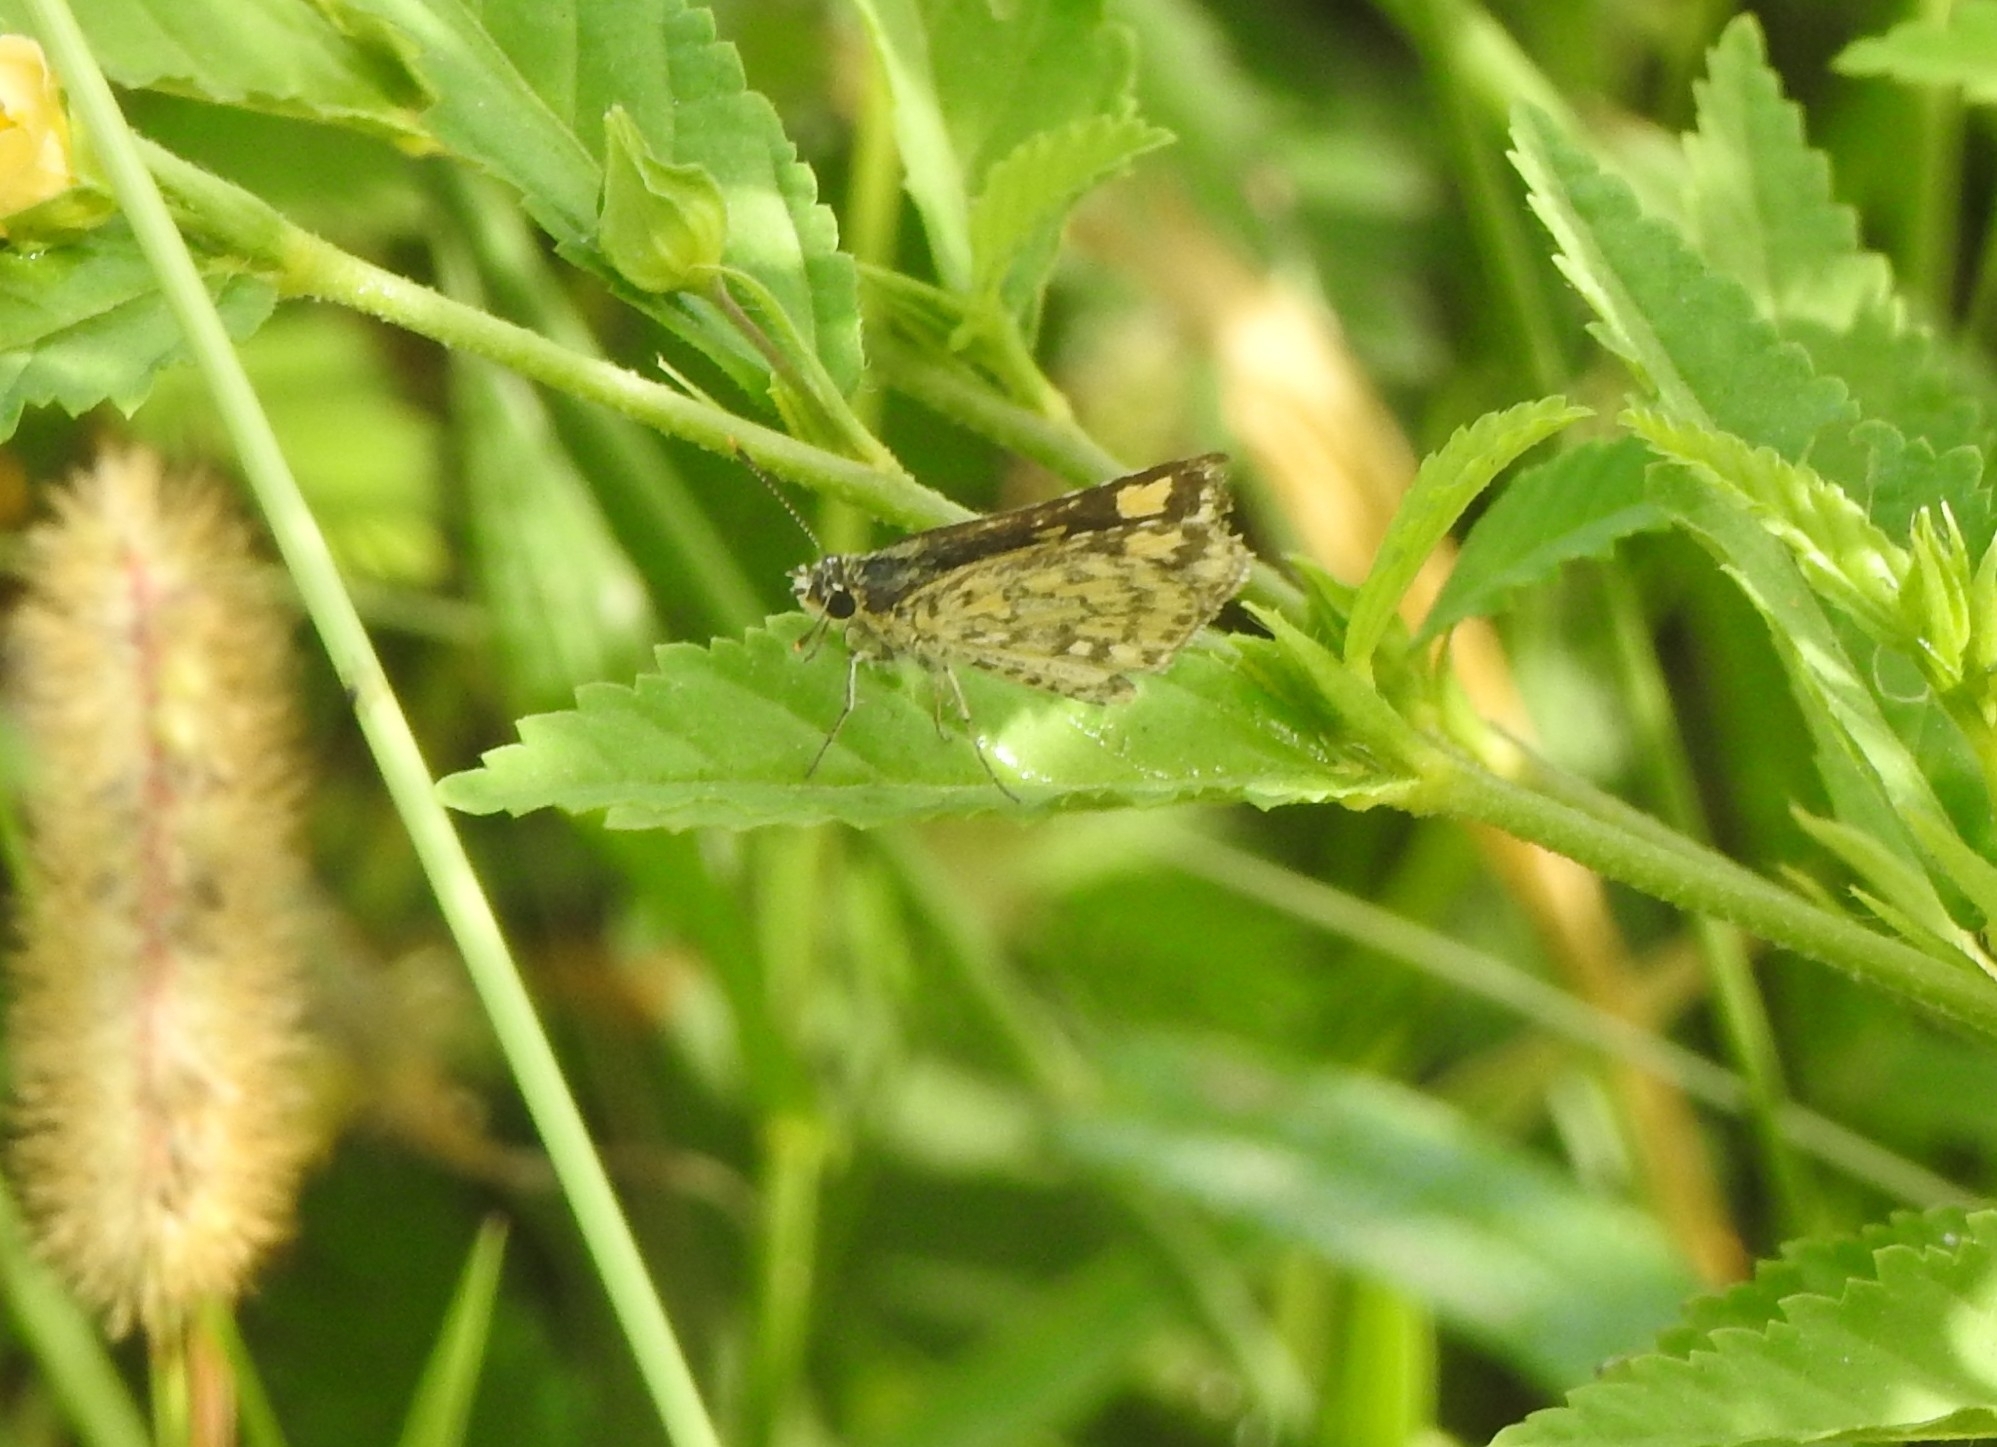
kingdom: Animalia
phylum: Arthropoda
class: Insecta
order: Lepidoptera
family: Hesperiidae
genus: Ampittia
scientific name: Ampittia dioscorides
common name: Common bush hopper
